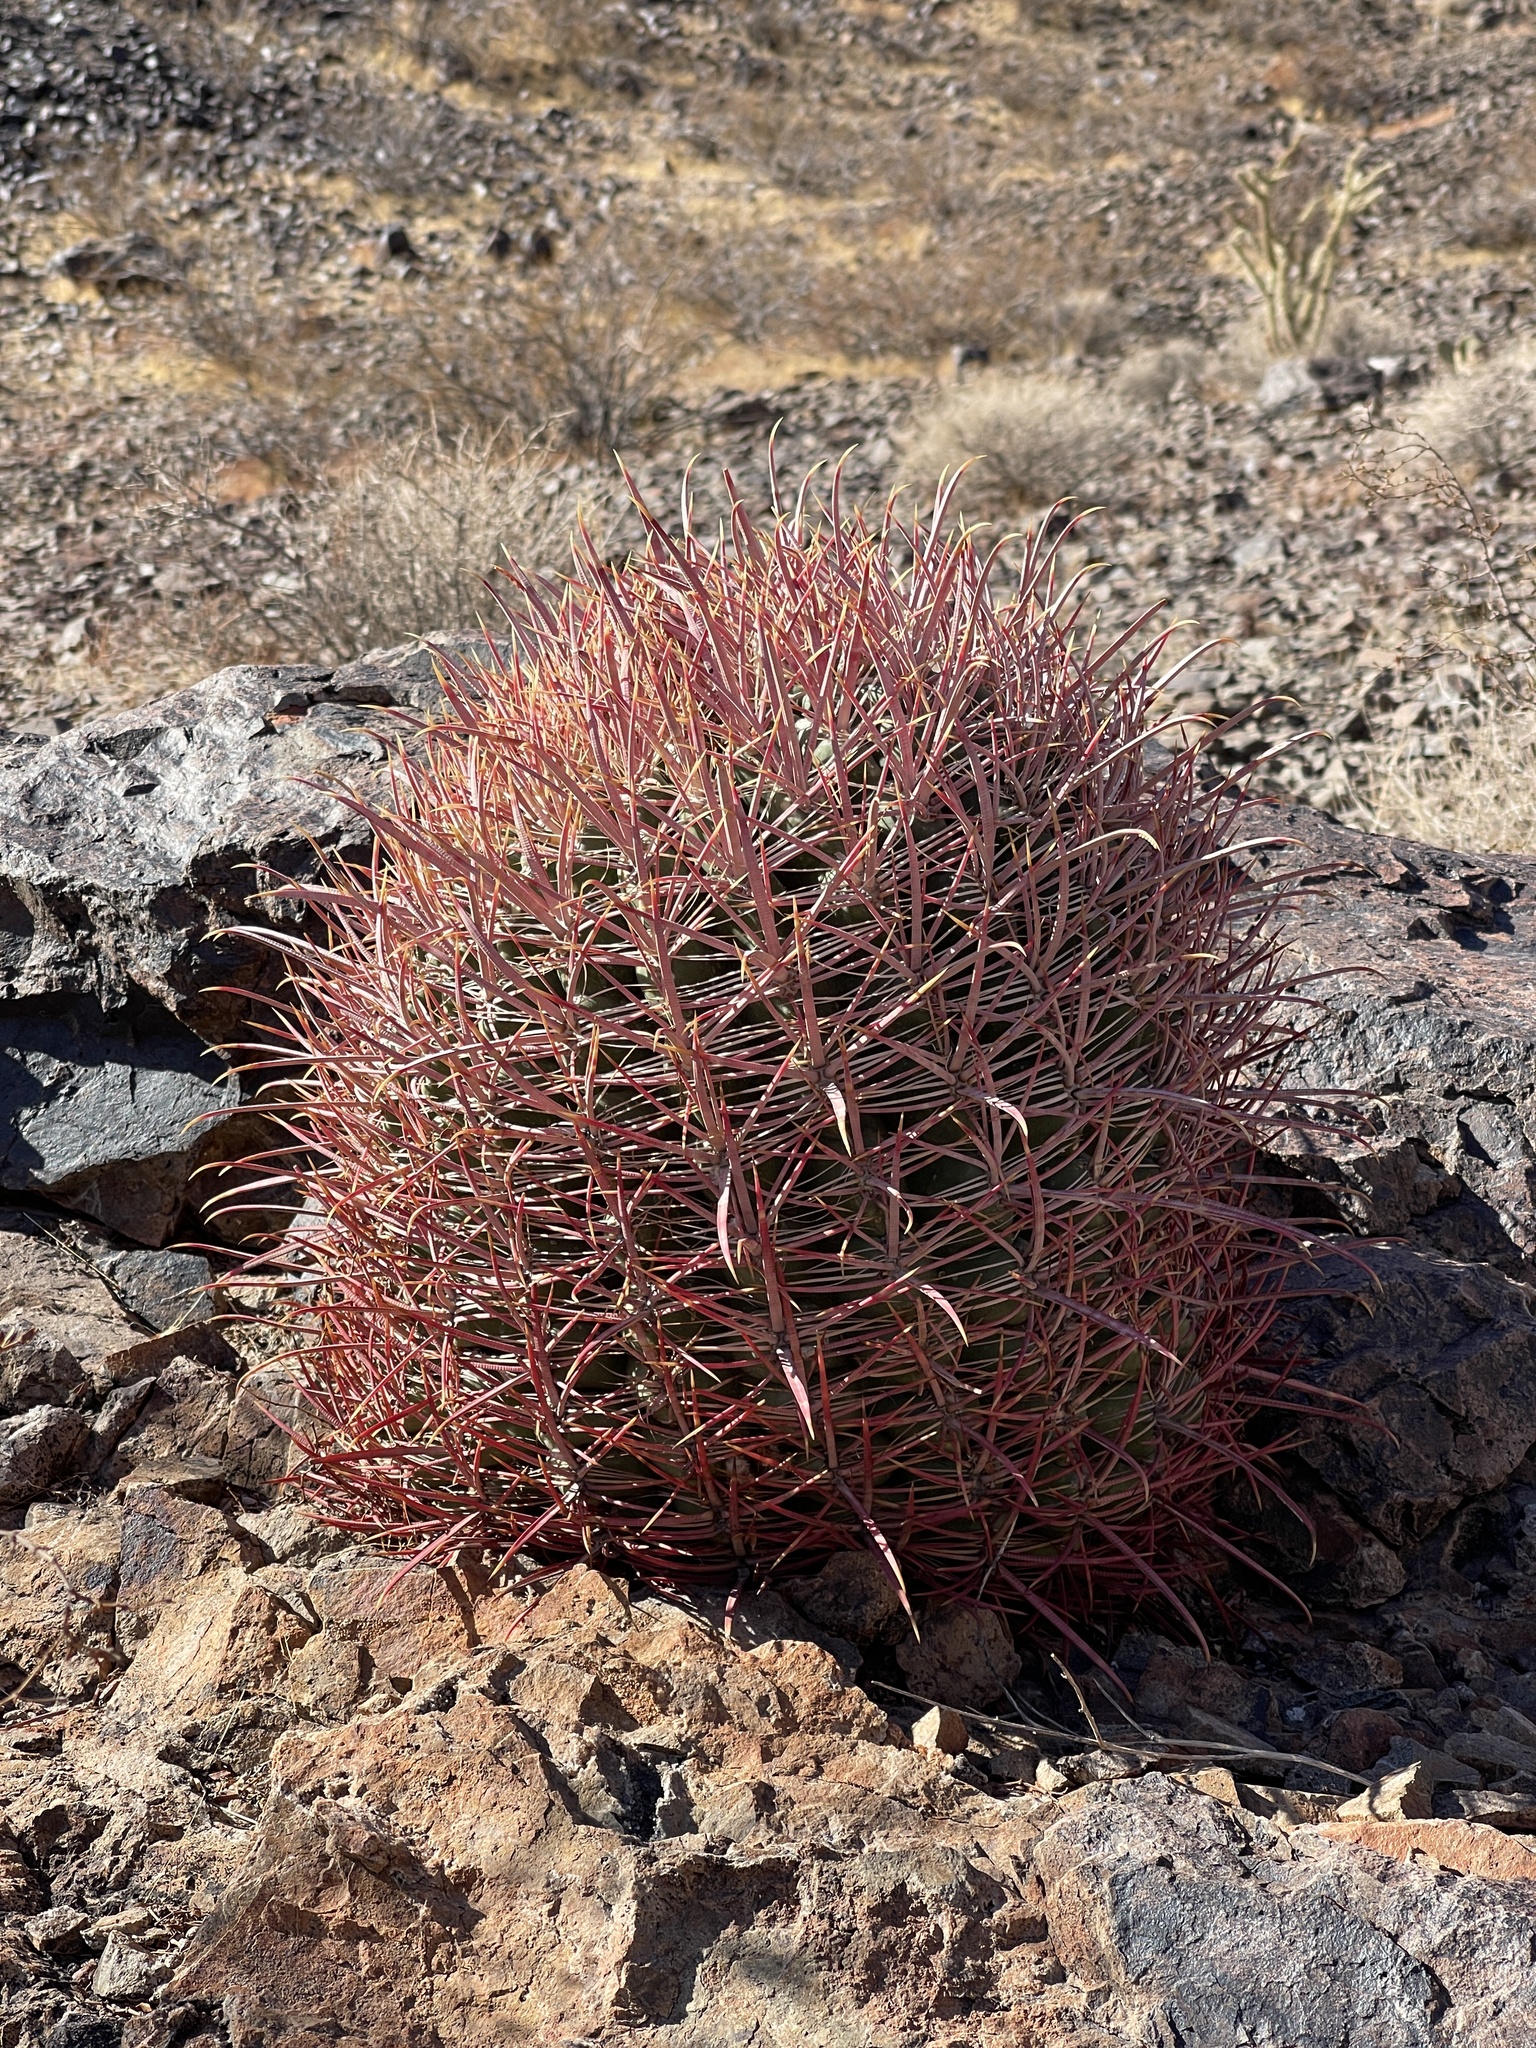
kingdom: Plantae
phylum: Tracheophyta
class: Magnoliopsida
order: Caryophyllales
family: Cactaceae
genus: Ferocactus
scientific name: Ferocactus cylindraceus
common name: California barrel cactus
